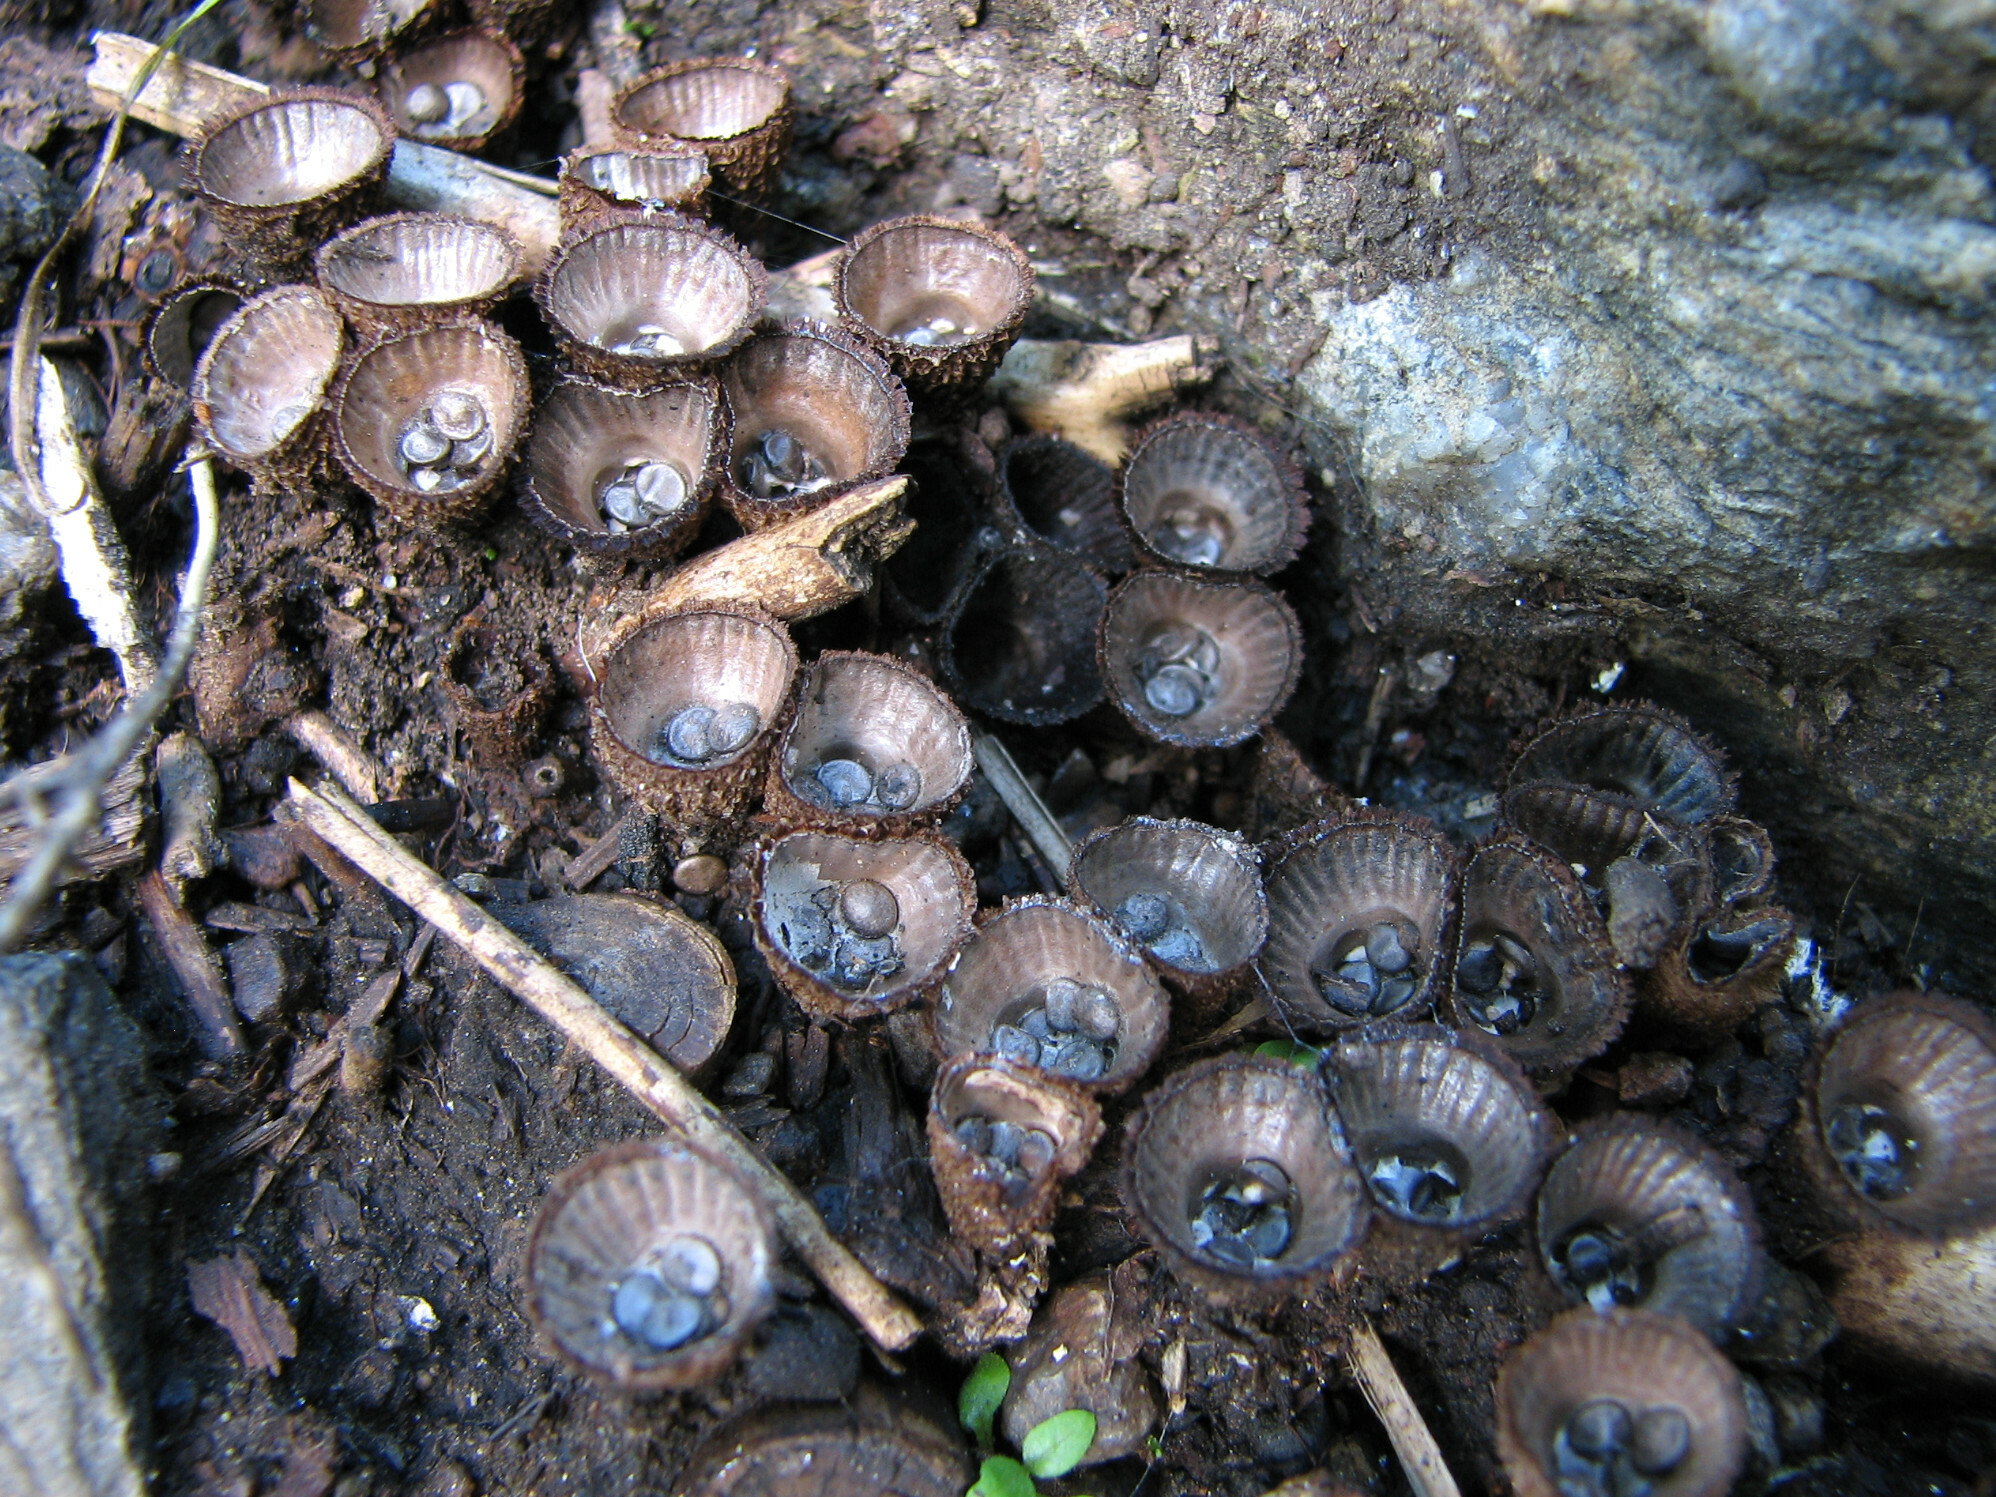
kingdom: Fungi
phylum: Basidiomycota
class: Agaricomycetes
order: Agaricales
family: Agaricaceae
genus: Cyathus
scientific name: Cyathus striatus
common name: Fluted bird's nest
